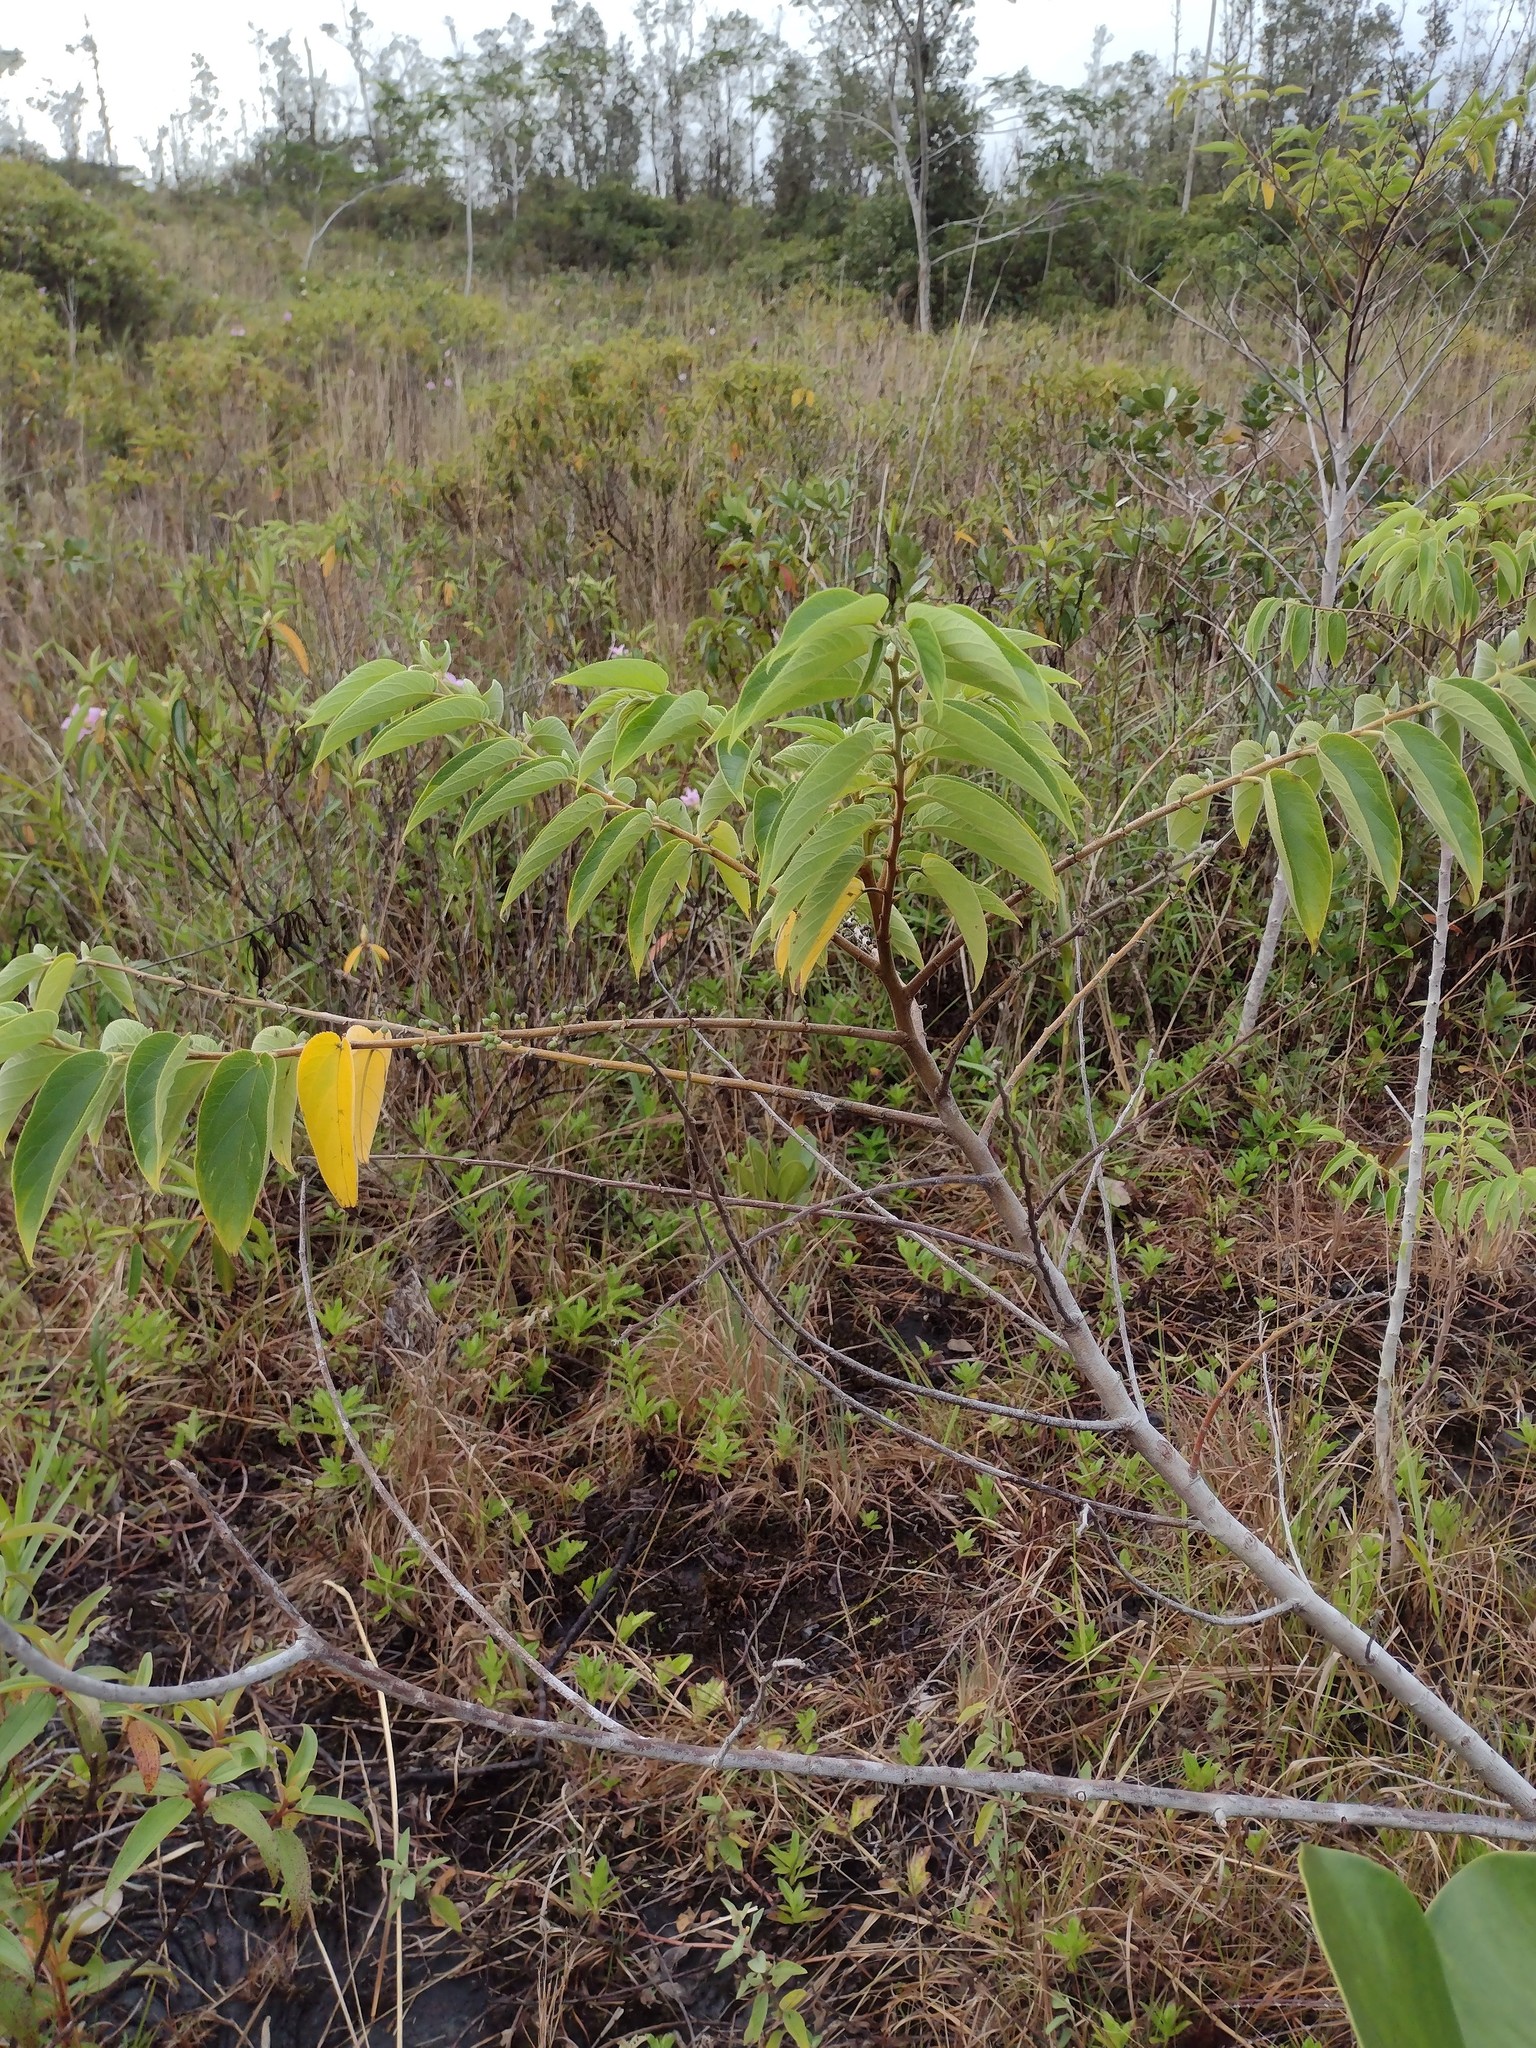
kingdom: Plantae
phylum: Tracheophyta
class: Magnoliopsida
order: Rosales
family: Cannabaceae
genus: Trema
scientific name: Trema orientale
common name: Indian charcoal tree
